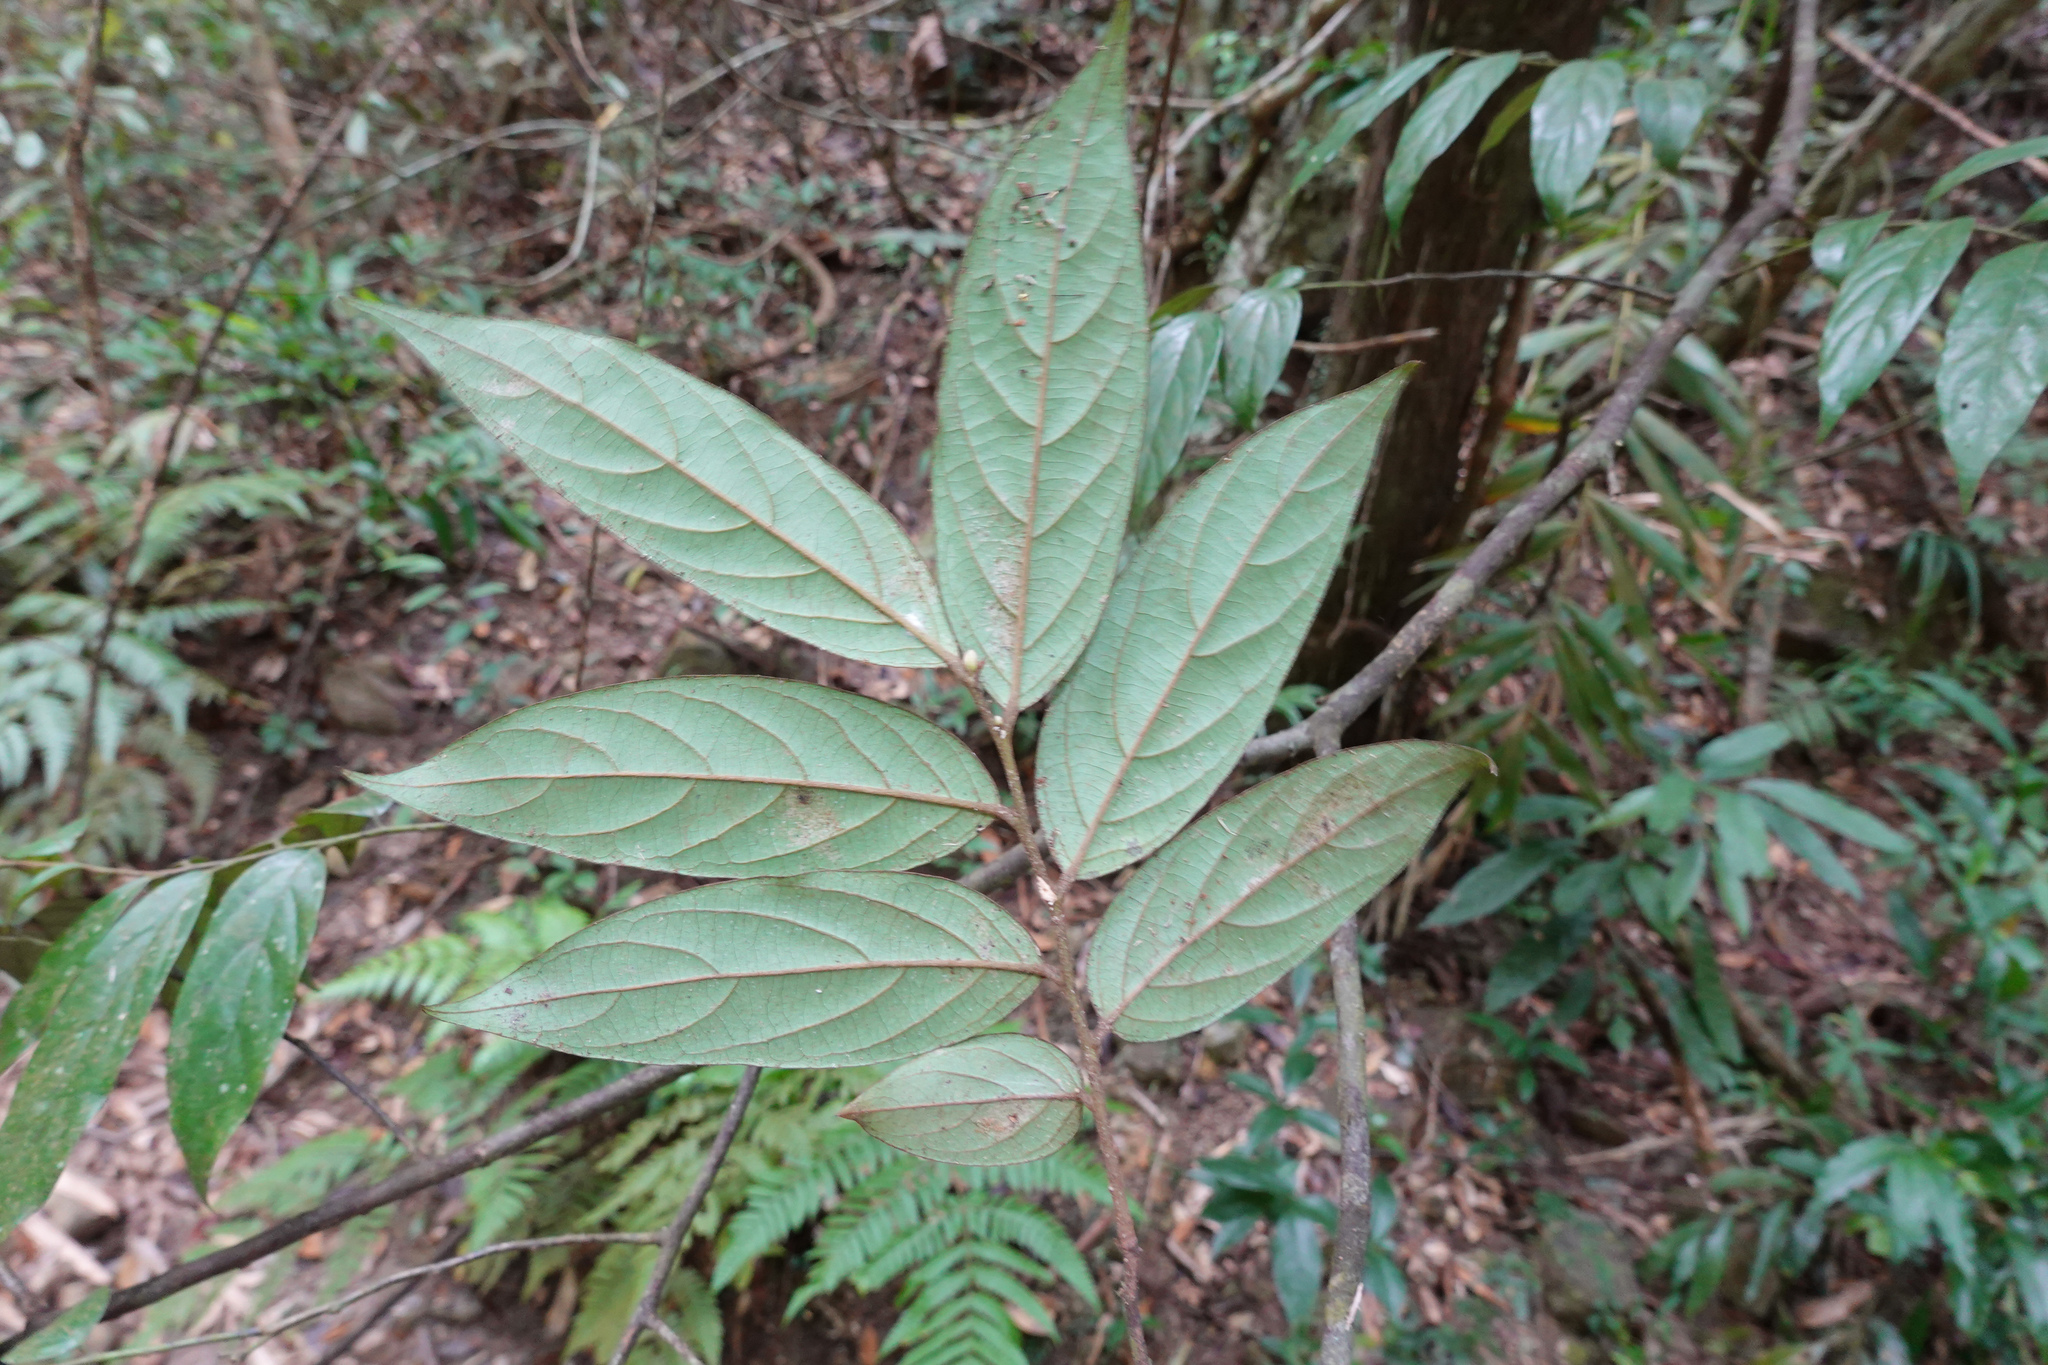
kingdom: Plantae
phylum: Tracheophyta
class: Magnoliopsida
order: Ericales
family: Ebenaceae
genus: Diospyros
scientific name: Diospyros eriantha
